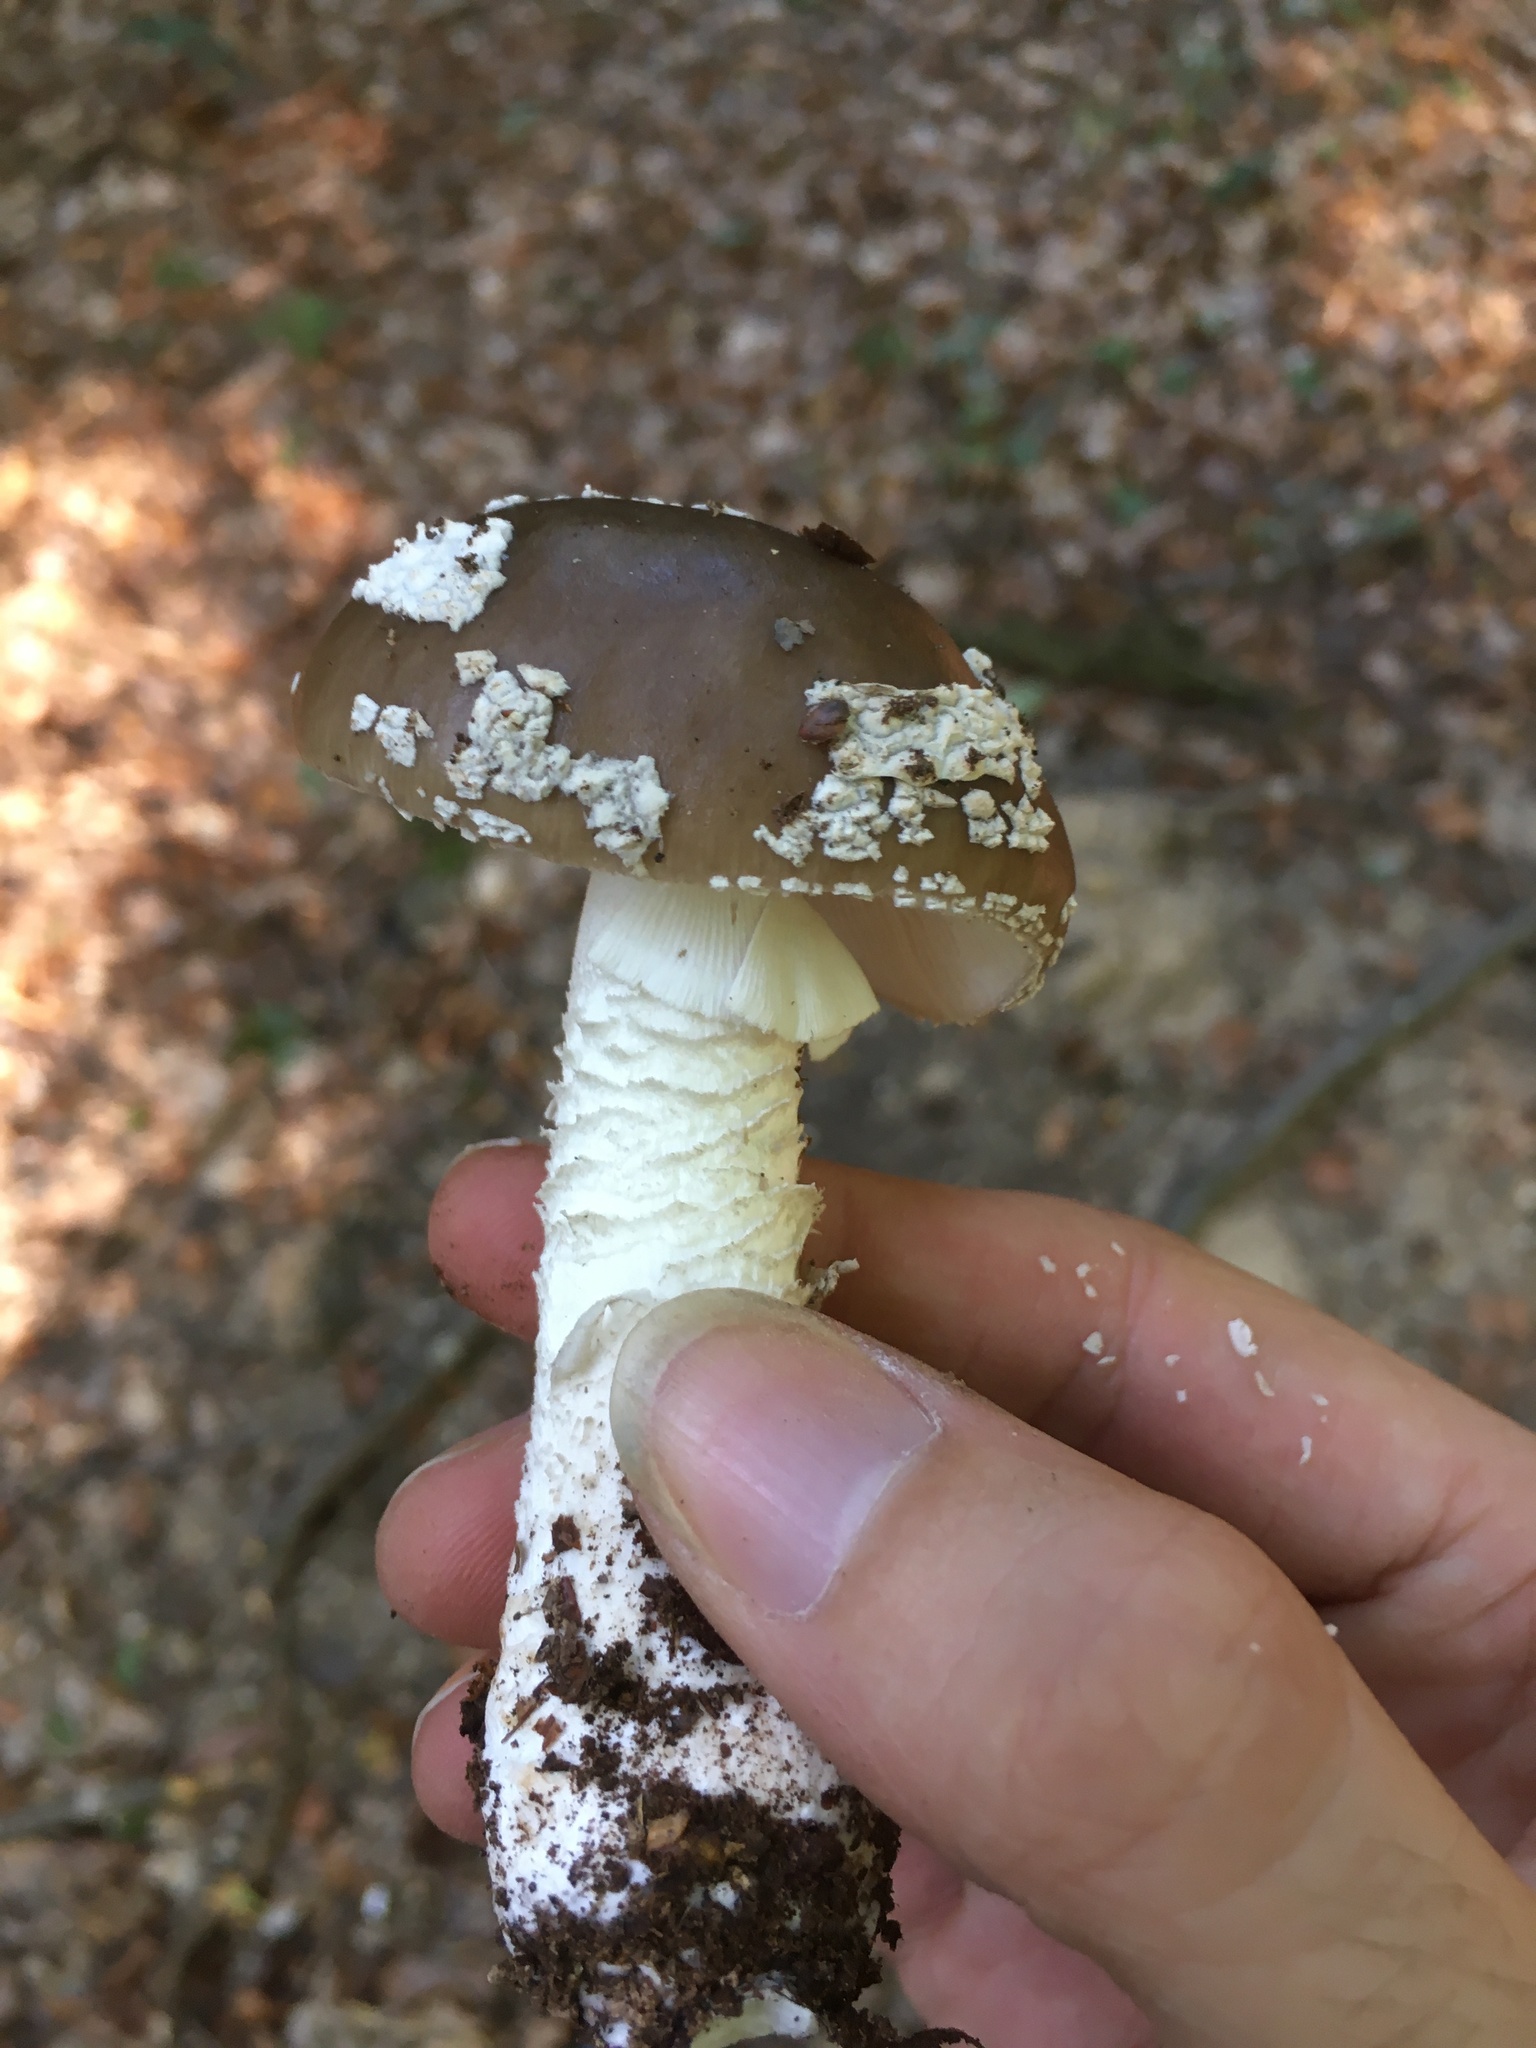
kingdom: Fungi
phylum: Basidiomycota
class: Agaricomycetes
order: Agaricales
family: Amanitaceae
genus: Amanita
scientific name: Amanita excelsa
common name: European false blusher
